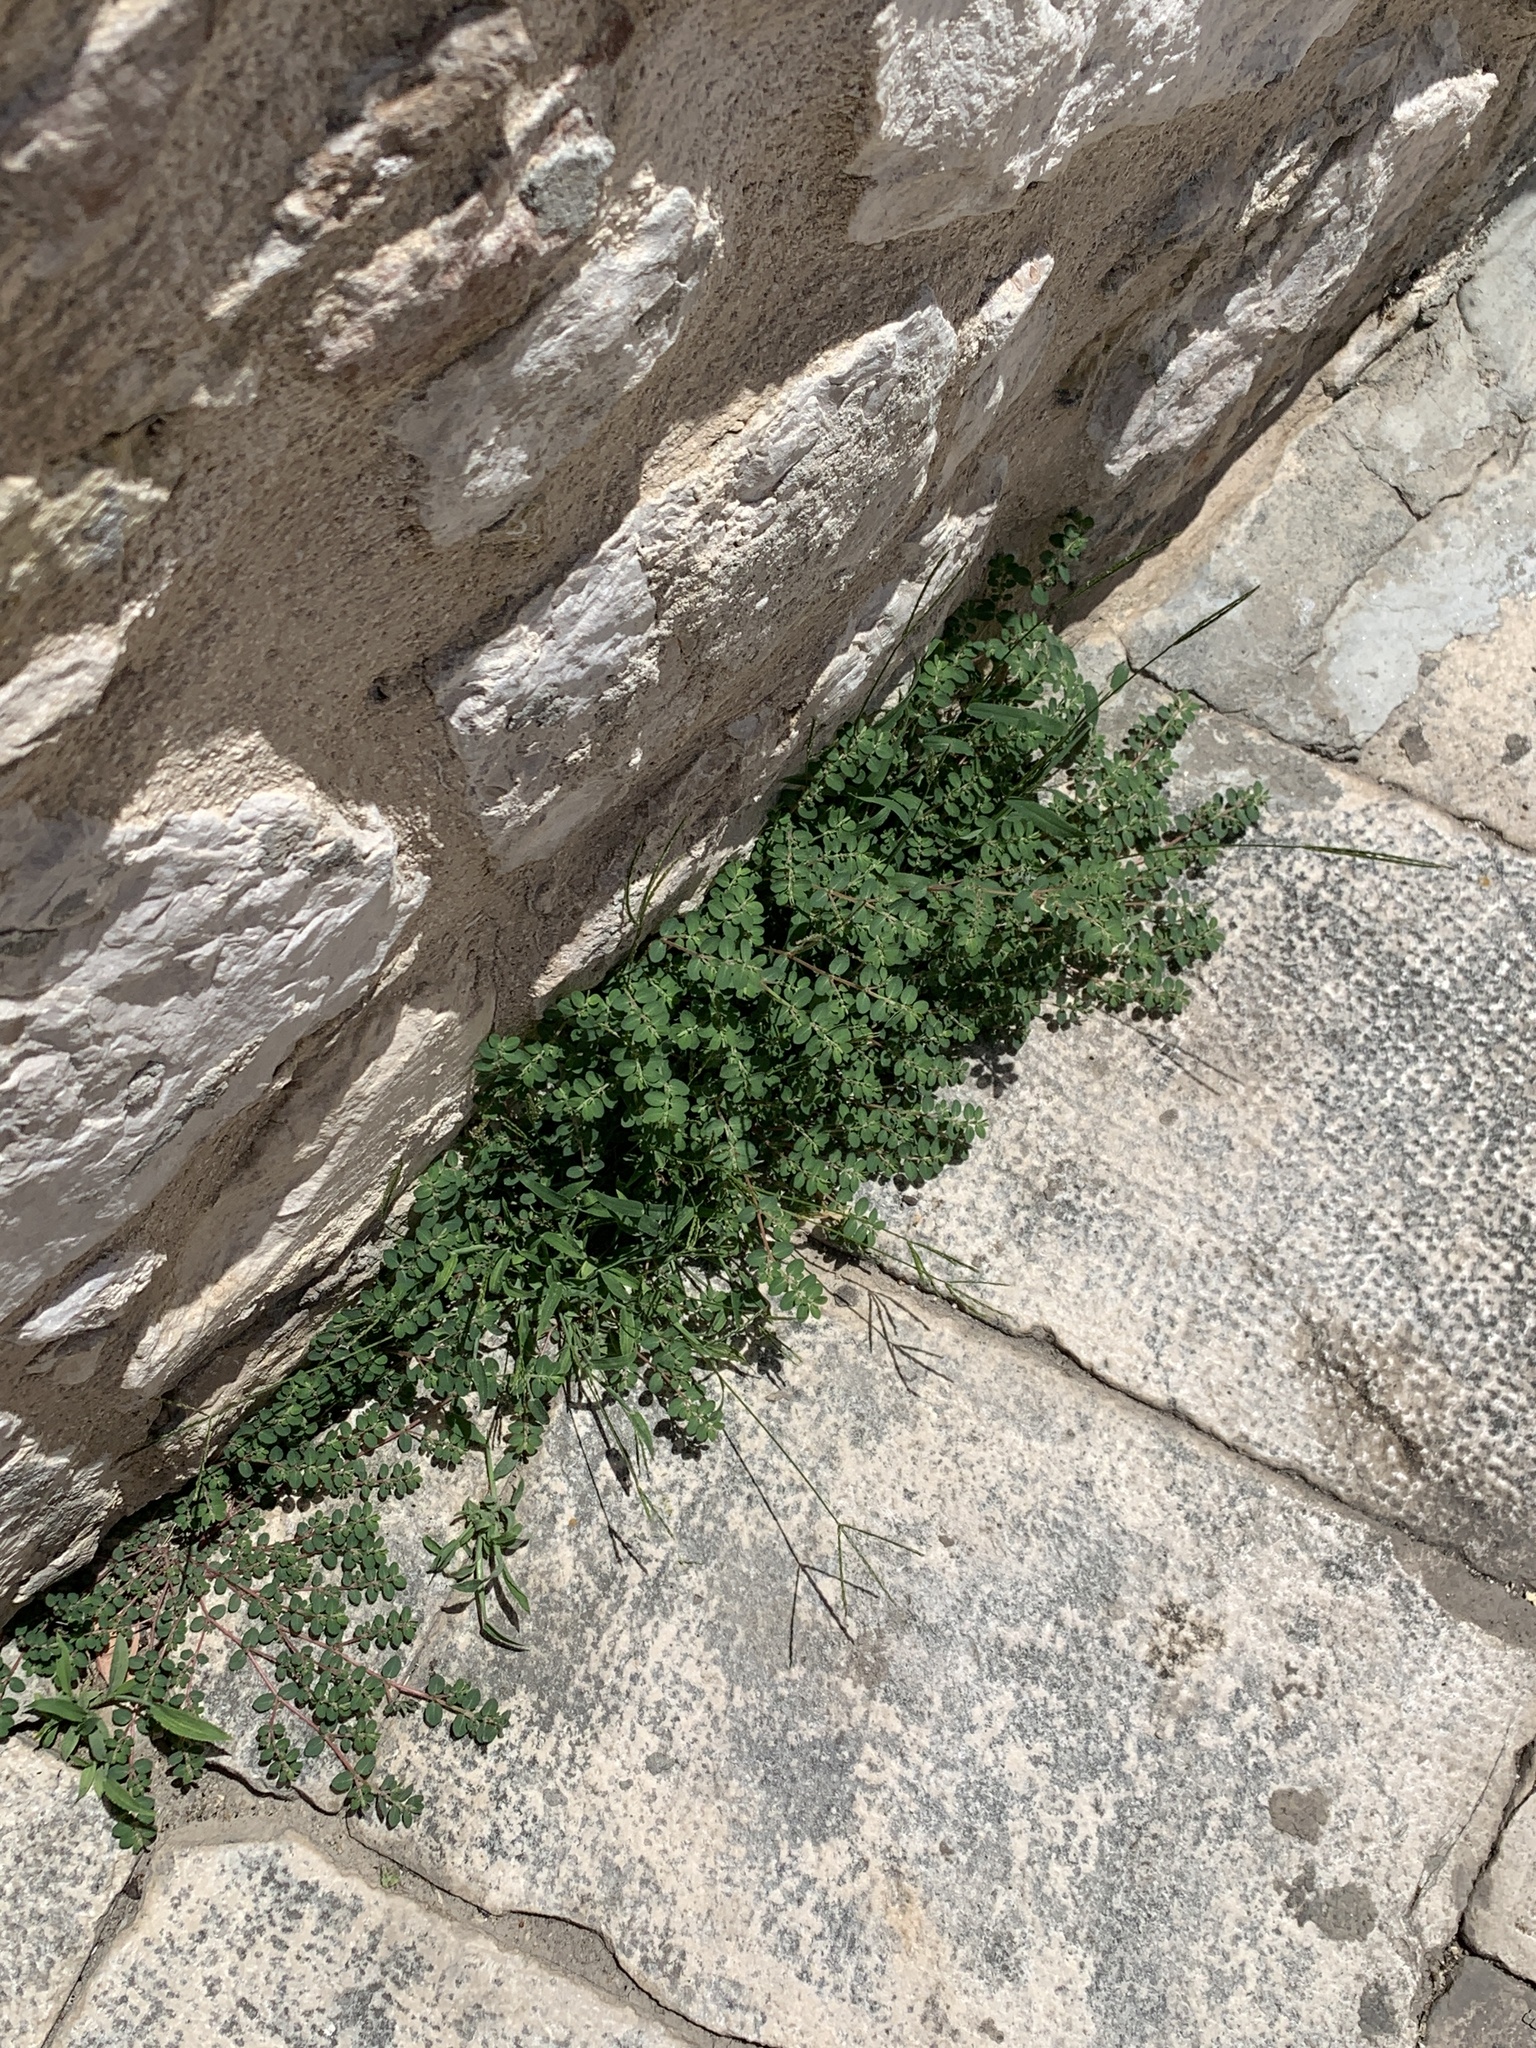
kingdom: Plantae
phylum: Tracheophyta
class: Magnoliopsida
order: Malpighiales
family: Euphorbiaceae
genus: Euphorbia
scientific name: Euphorbia prostrata
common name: Prostrate sandmat
